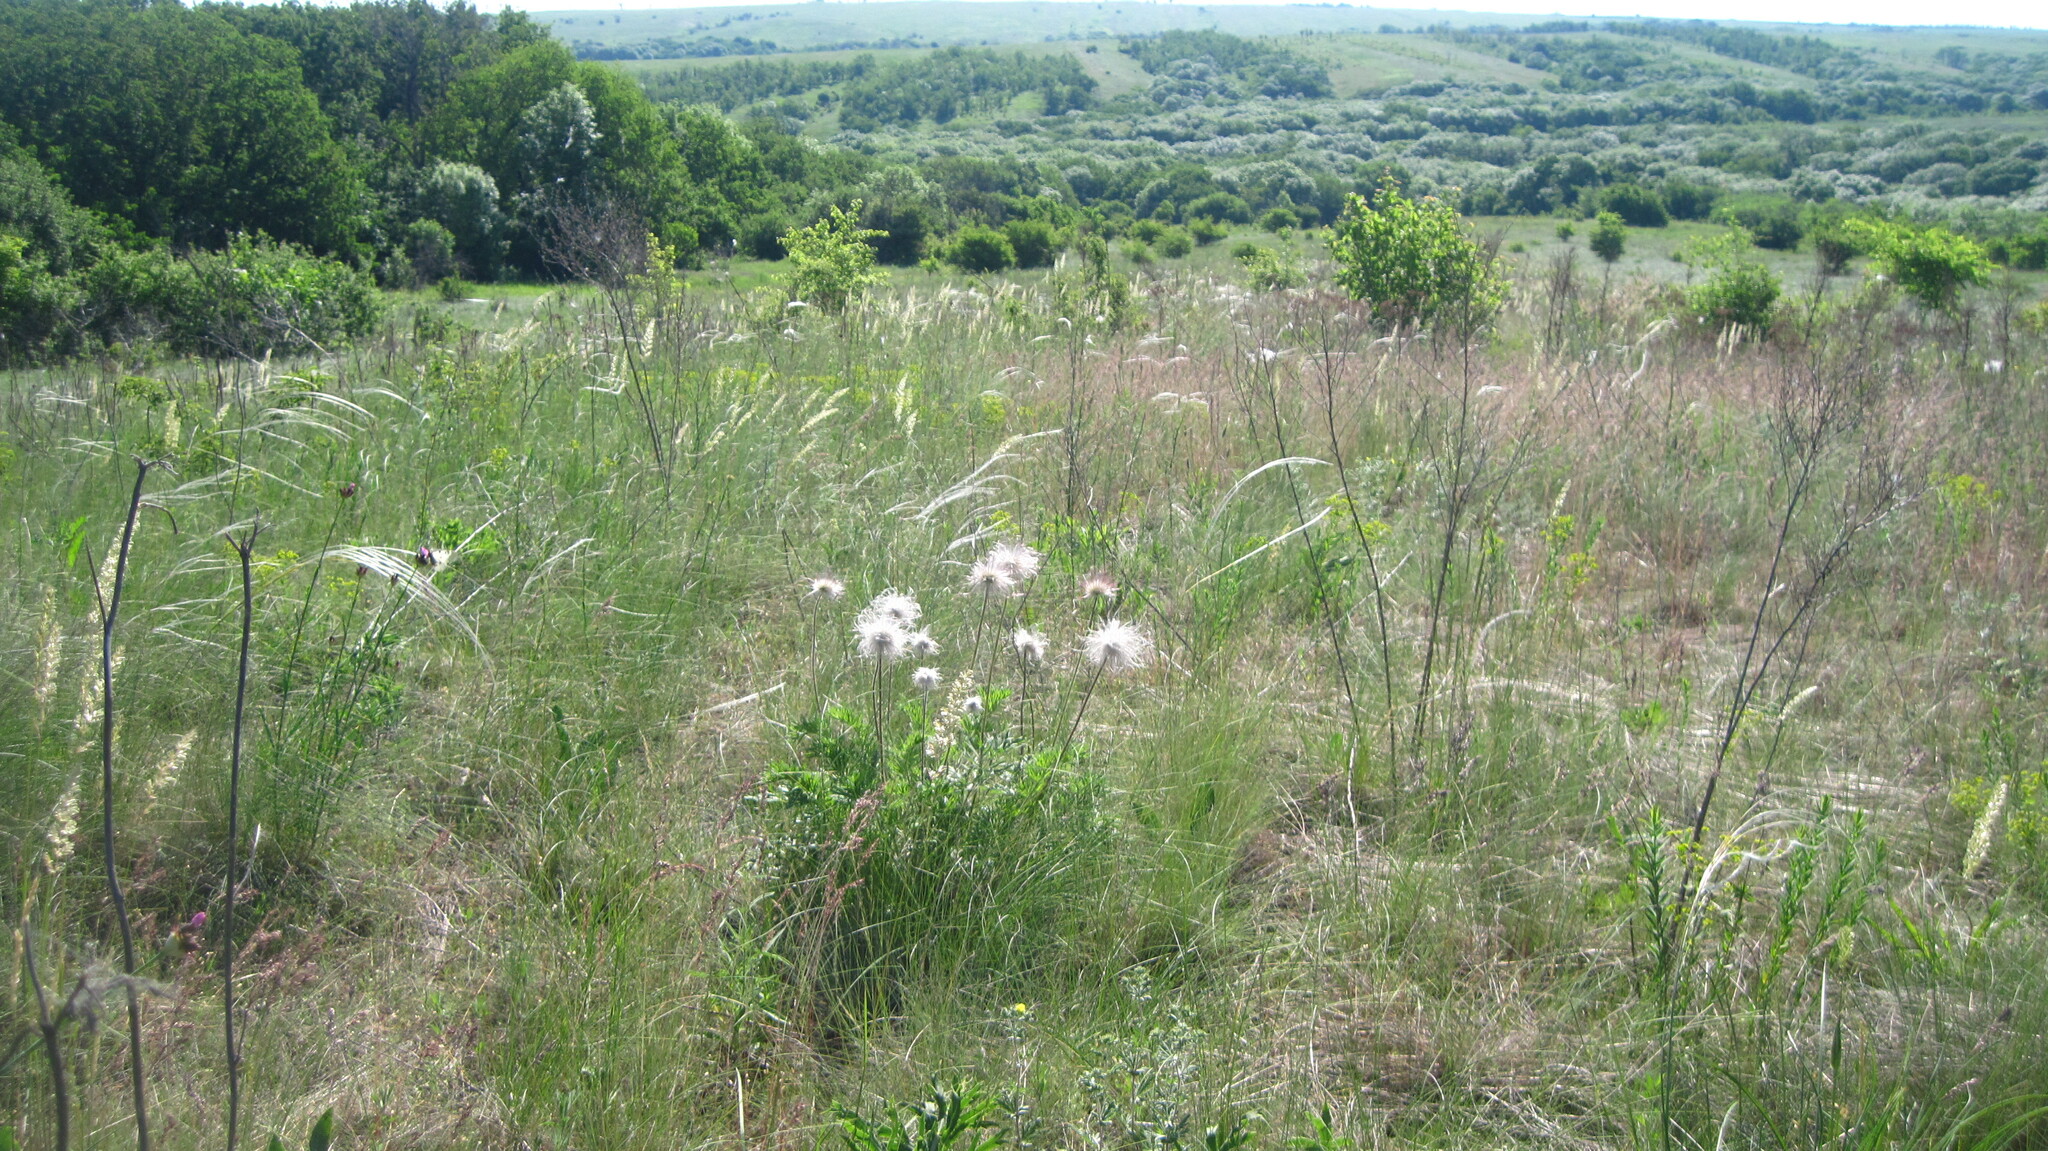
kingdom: Plantae
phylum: Tracheophyta
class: Magnoliopsida
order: Ranunculales
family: Ranunculaceae
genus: Pulsatilla
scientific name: Pulsatilla pratensis
